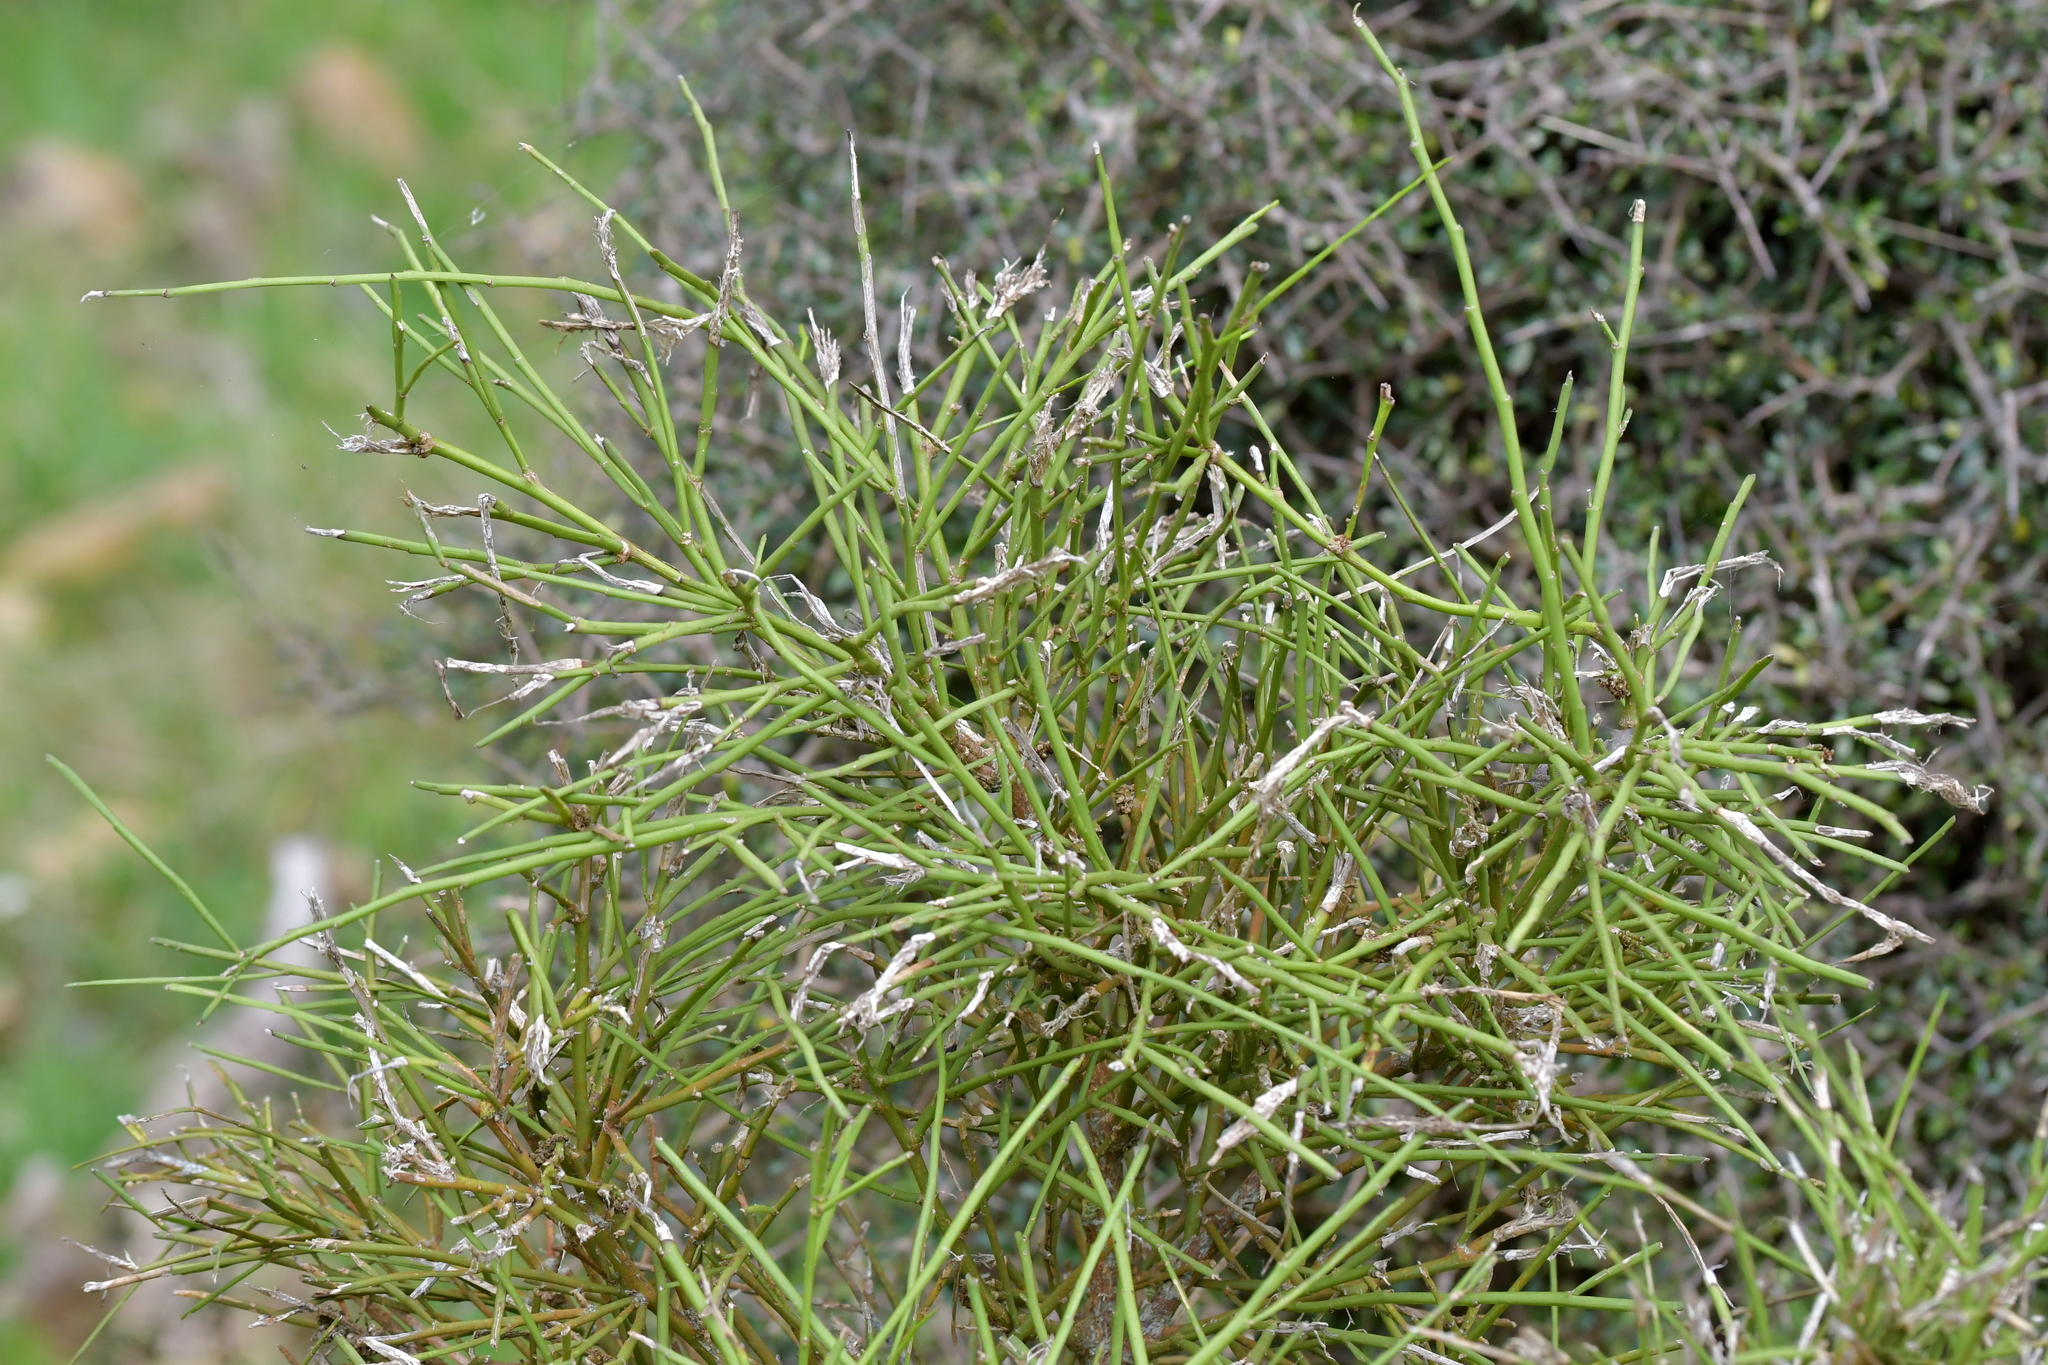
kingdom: Plantae
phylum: Tracheophyta
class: Magnoliopsida
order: Fabales
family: Fabaceae
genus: Carmichaelia
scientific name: Carmichaelia australis
